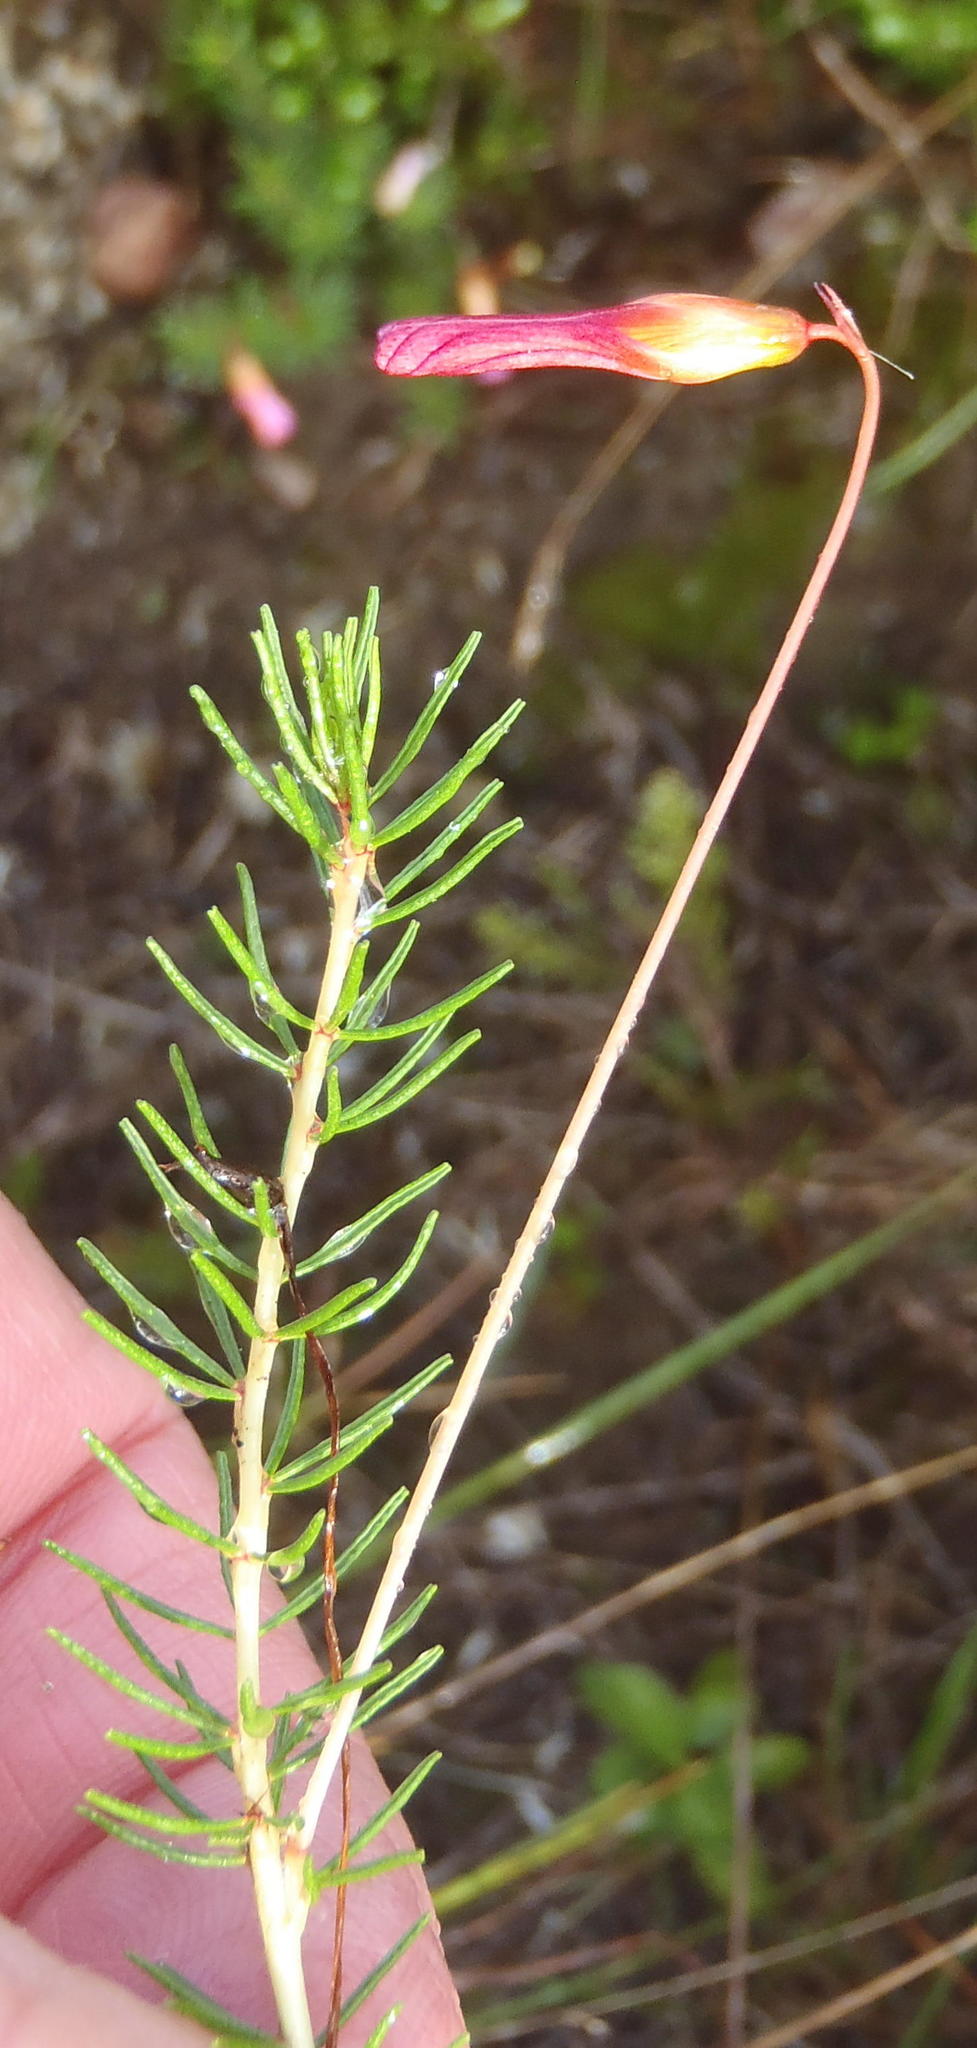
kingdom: Plantae
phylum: Tracheophyta
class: Magnoliopsida
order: Oxalidales
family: Oxalidaceae
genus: Oxalis
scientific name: Oxalis confertifolia
